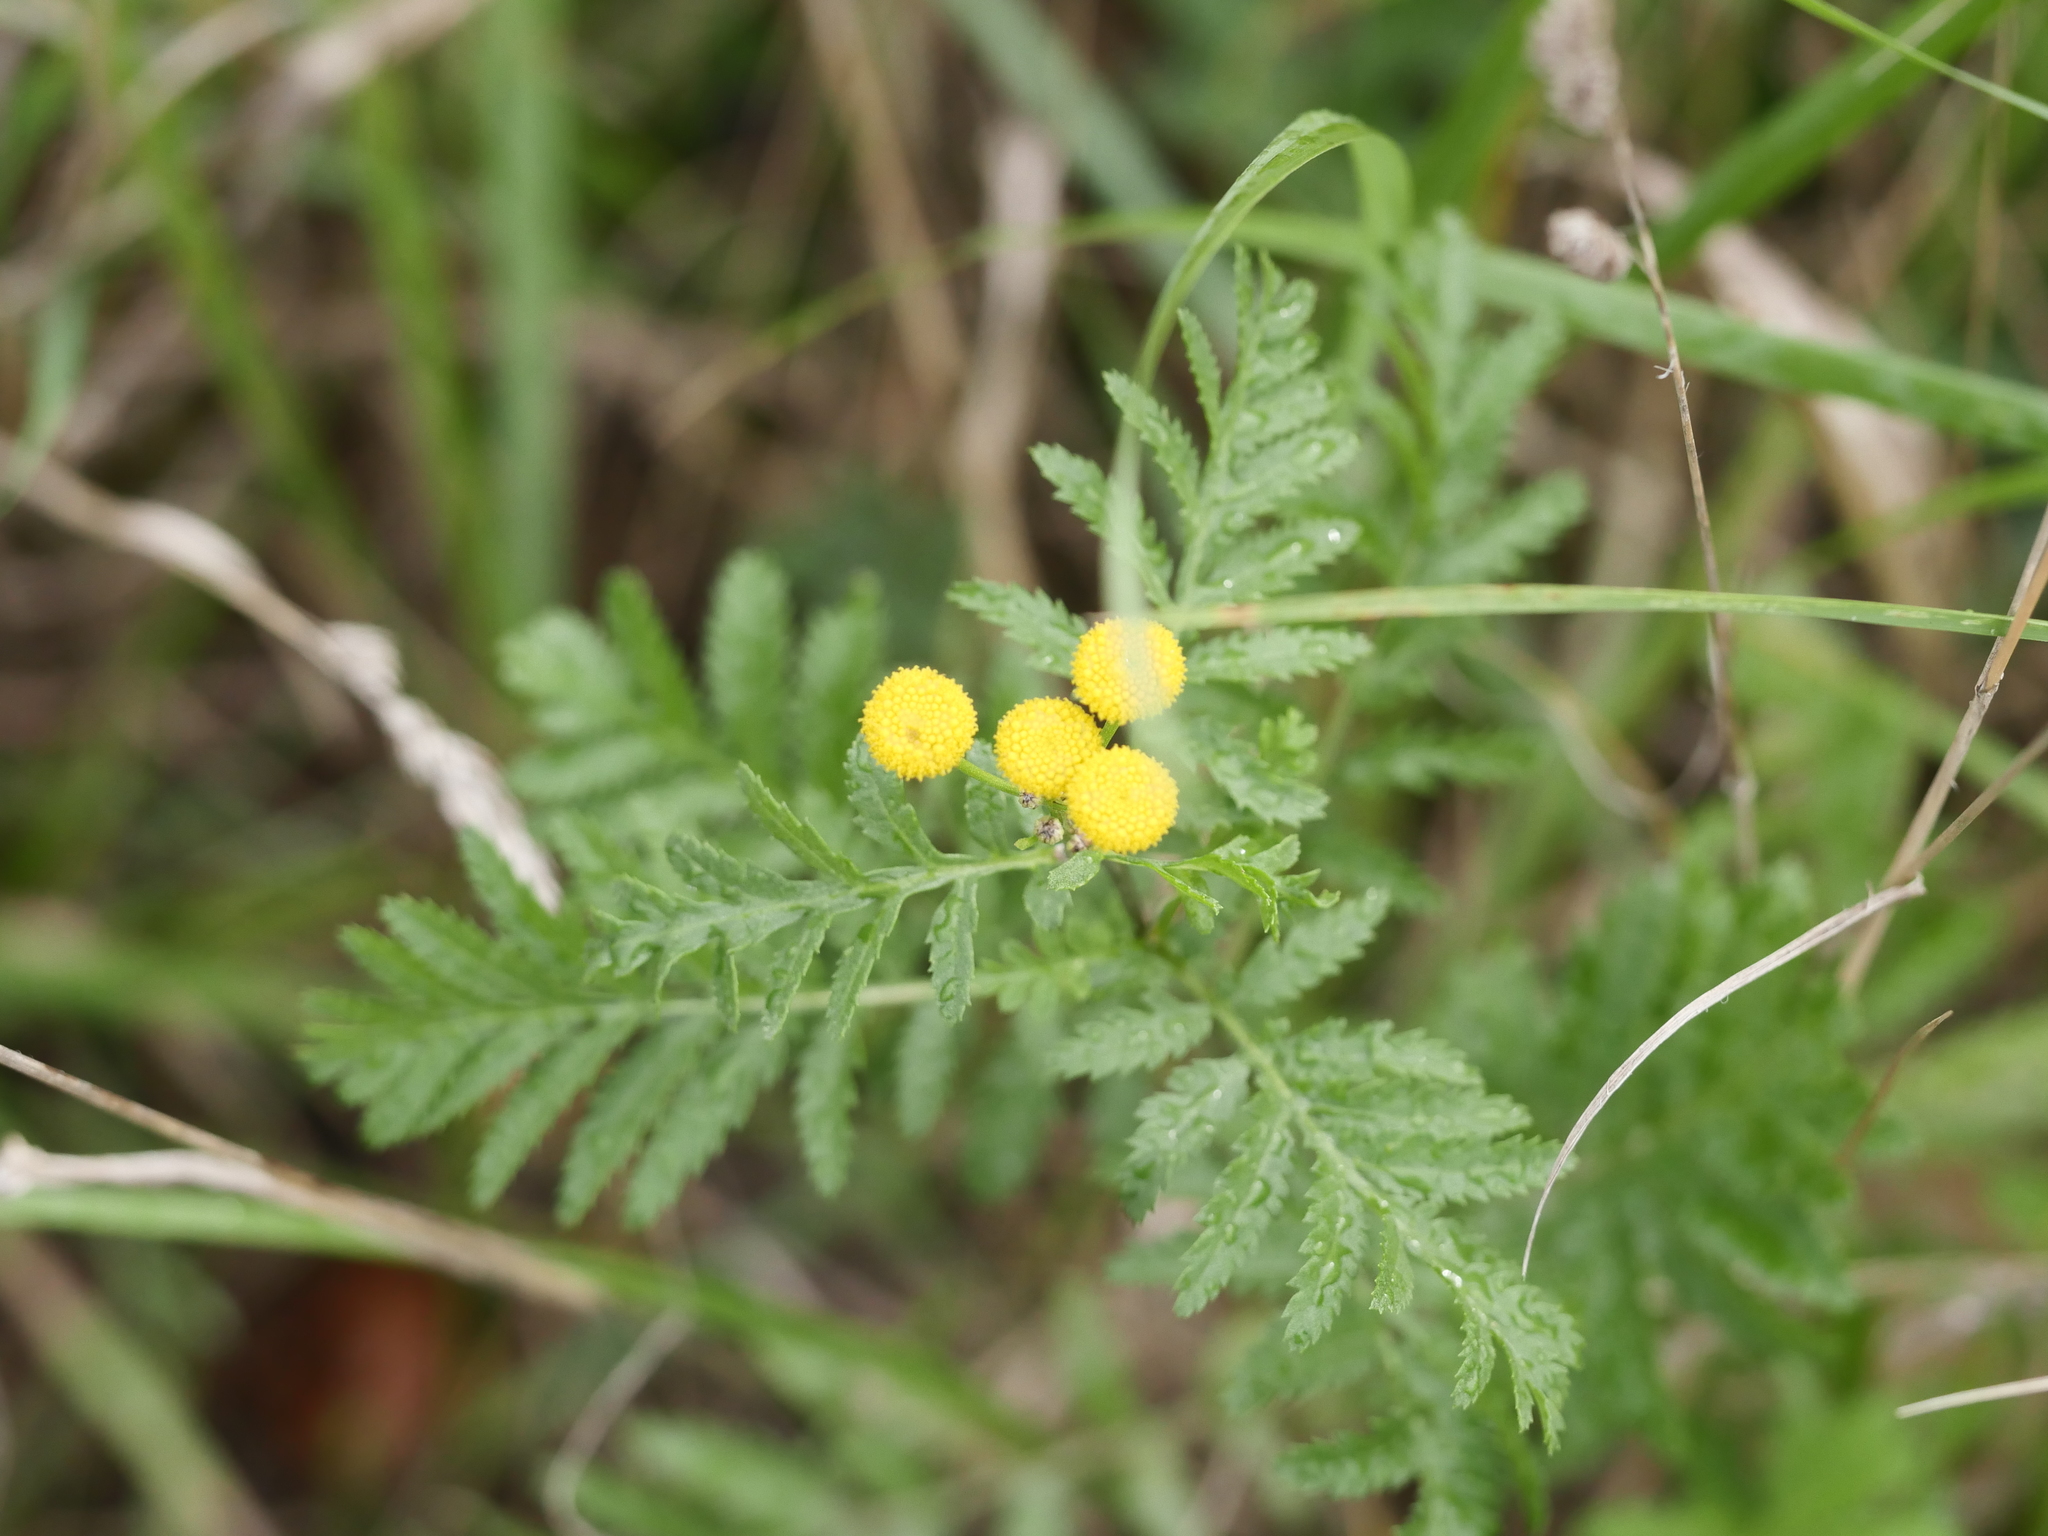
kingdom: Plantae
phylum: Tracheophyta
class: Magnoliopsida
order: Asterales
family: Asteraceae
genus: Tanacetum
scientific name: Tanacetum vulgare
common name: Common tansy
